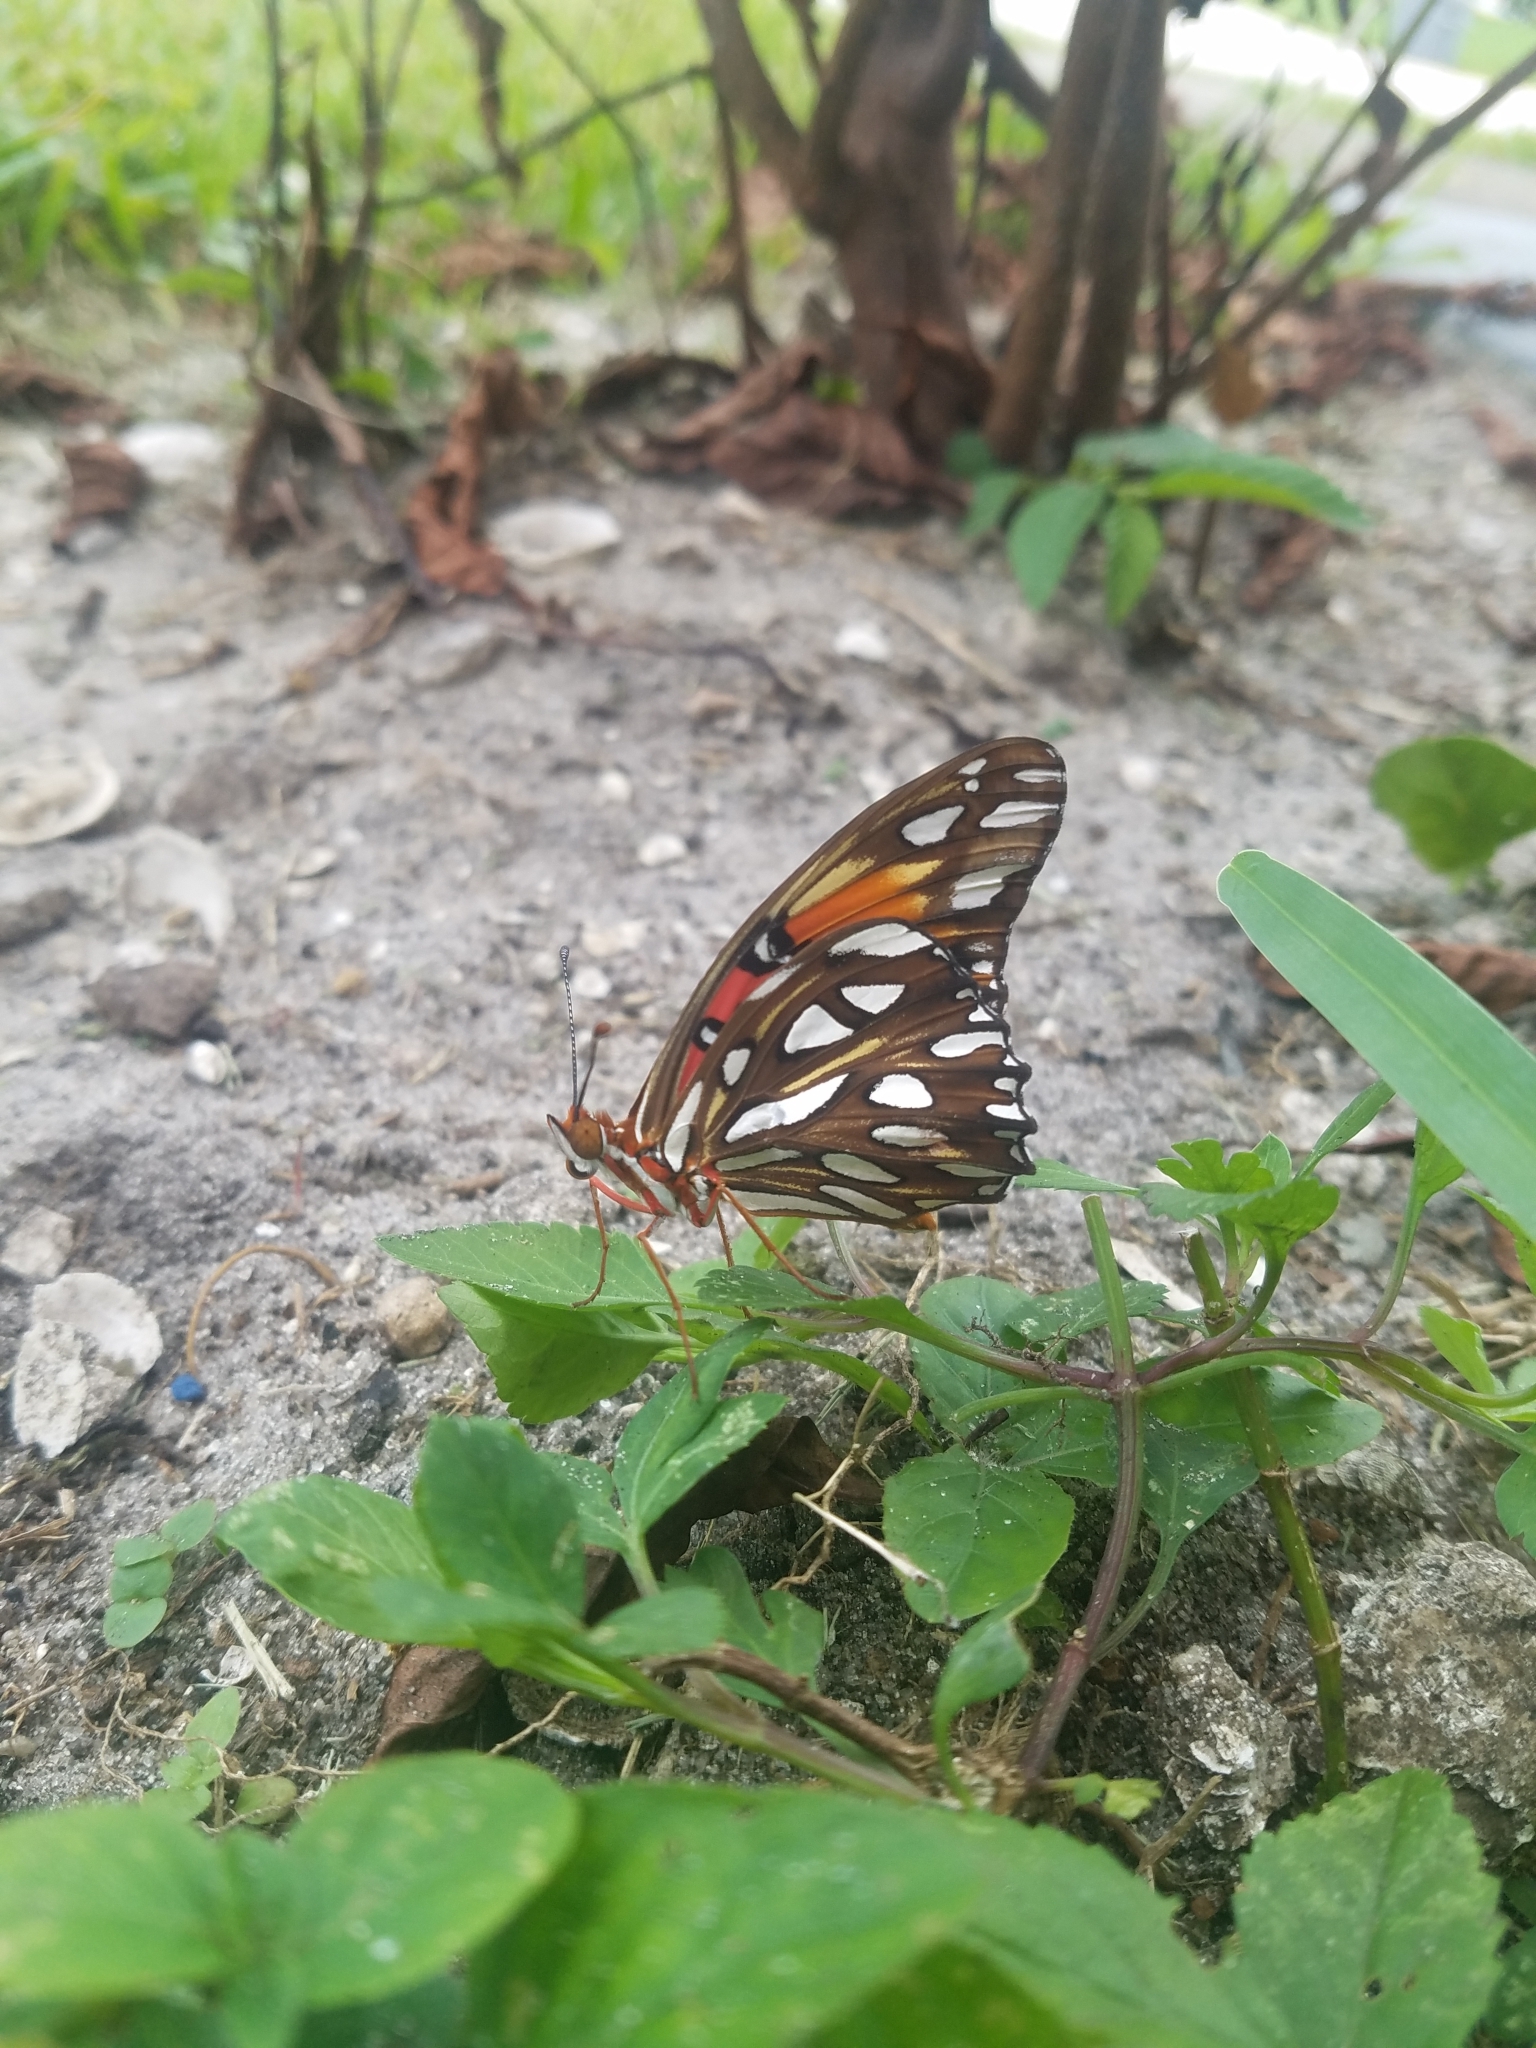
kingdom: Animalia
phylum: Arthropoda
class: Insecta
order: Lepidoptera
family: Nymphalidae
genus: Dione
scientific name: Dione vanillae
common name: Gulf fritillary
